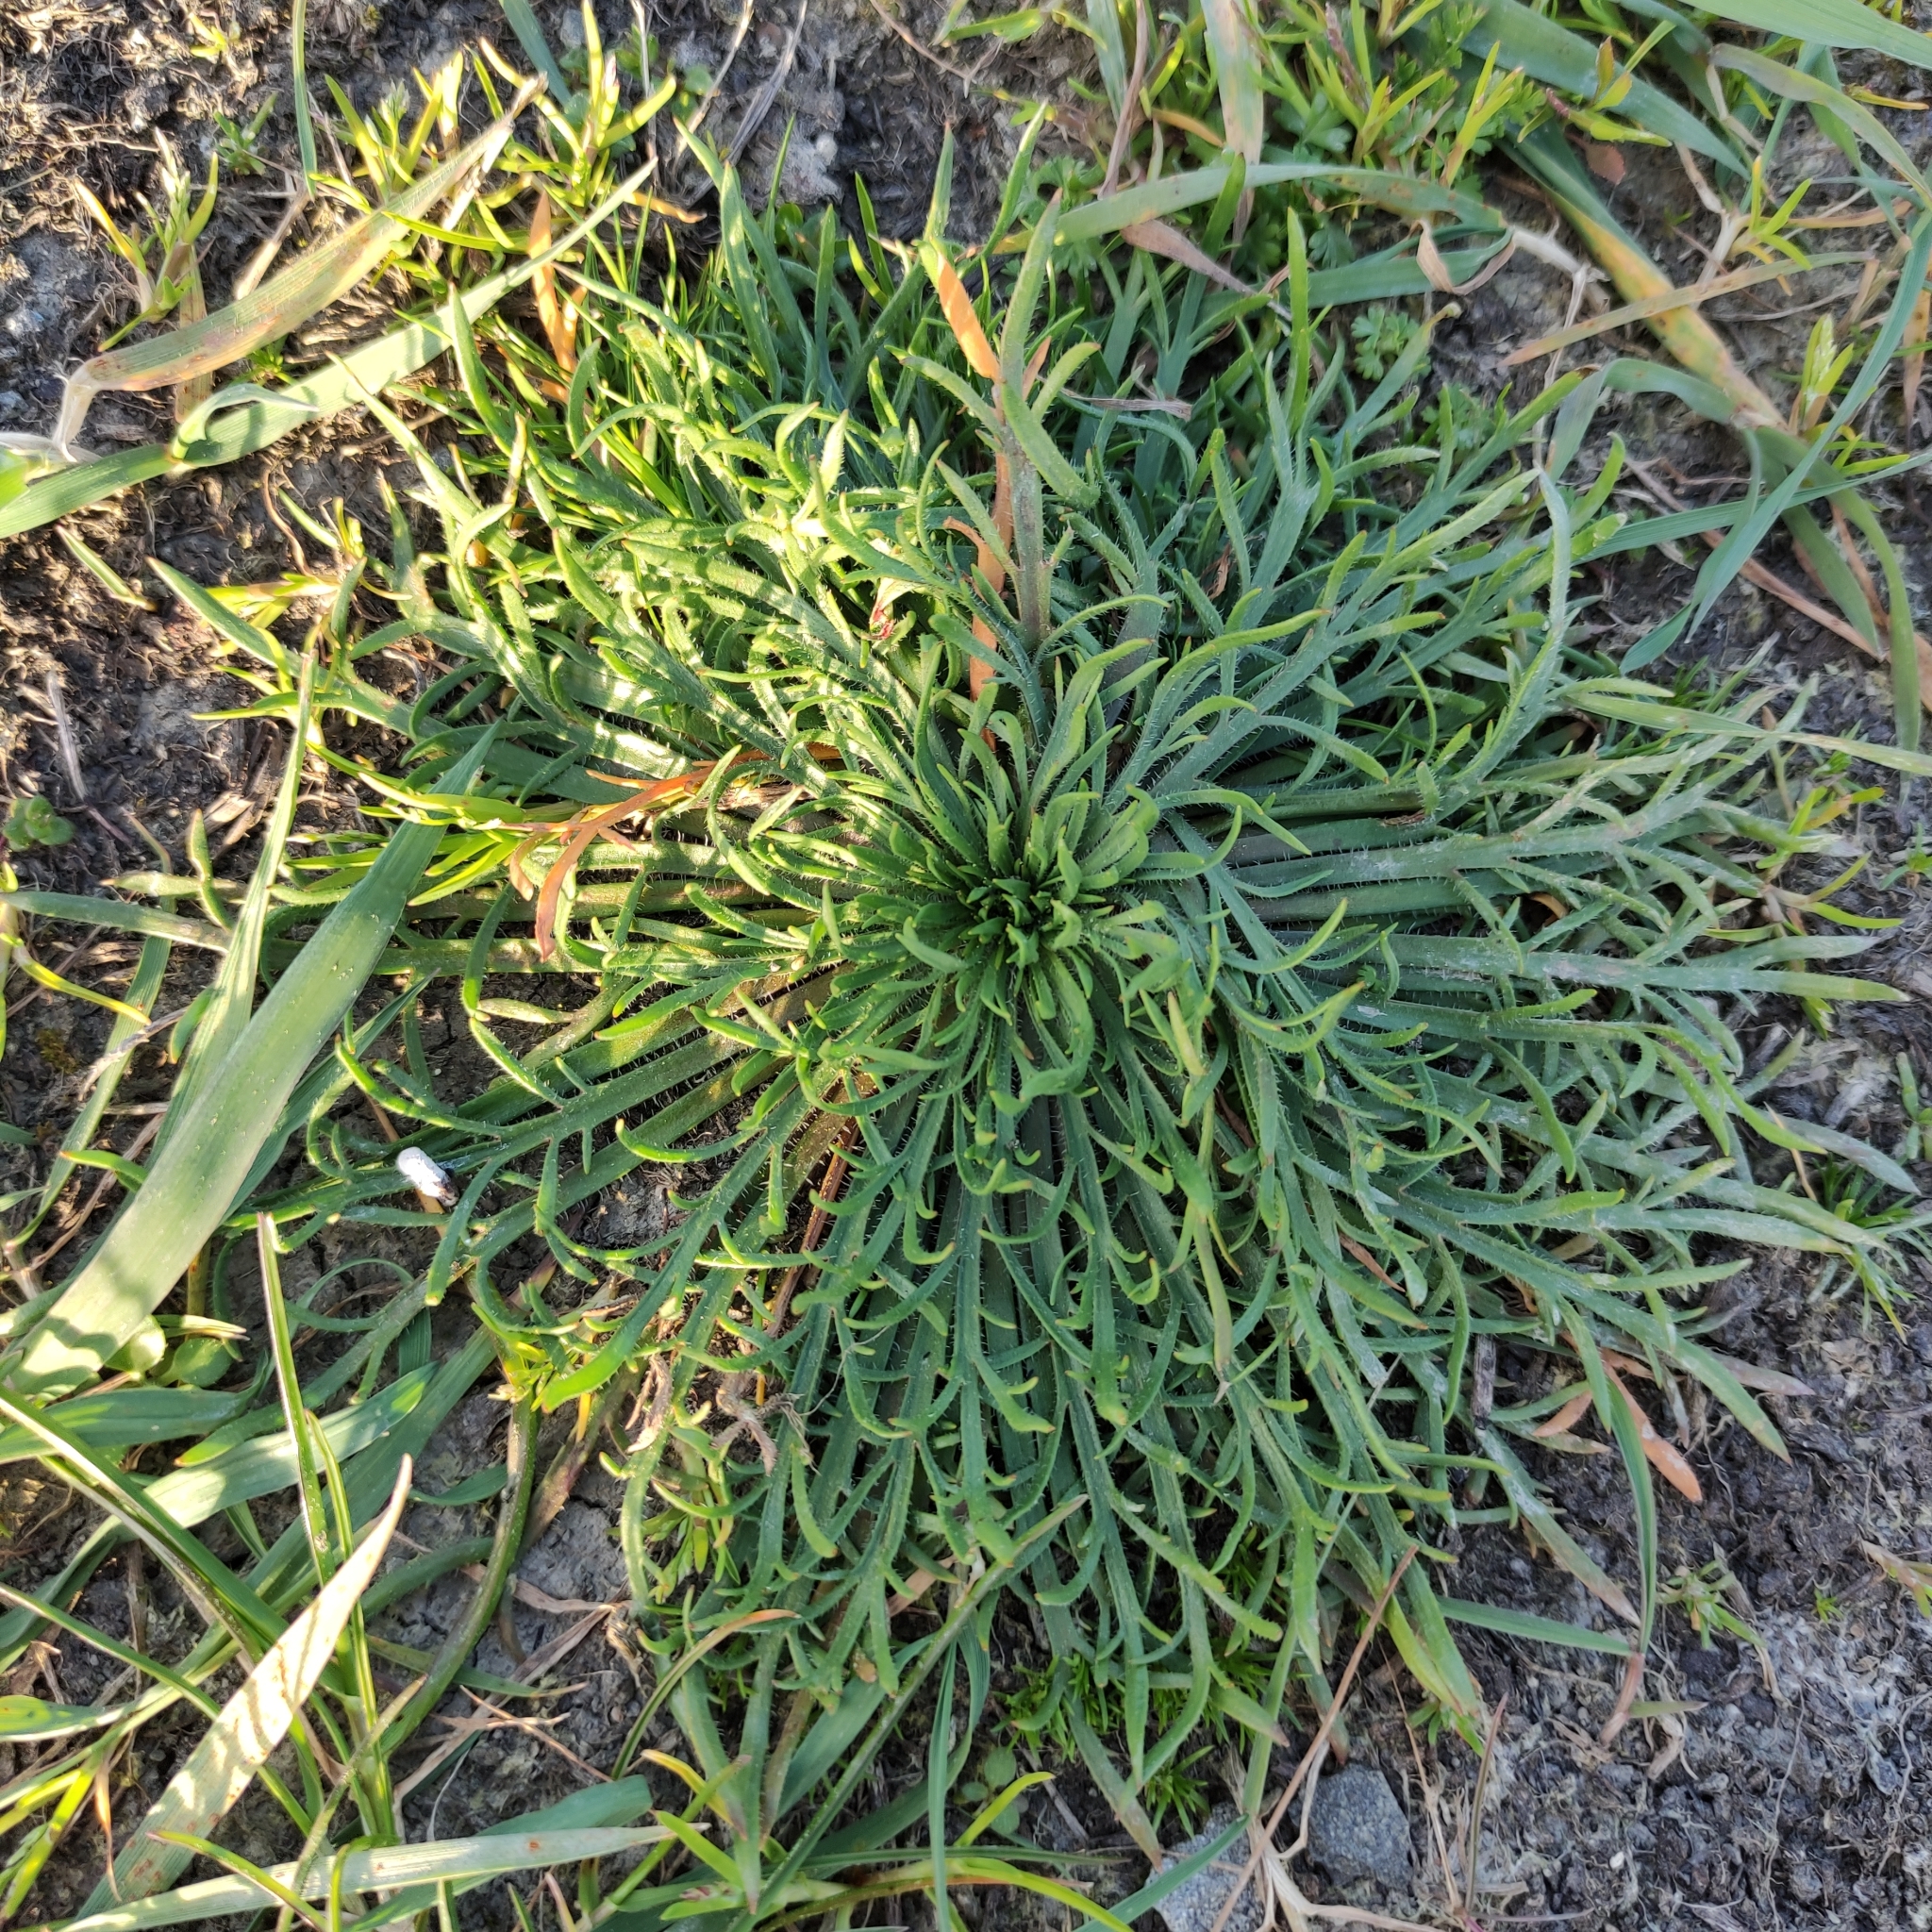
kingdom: Plantae
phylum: Tracheophyta
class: Magnoliopsida
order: Lamiales
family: Plantaginaceae
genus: Plantago
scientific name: Plantago coronopus
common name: Buck's-horn plantain
